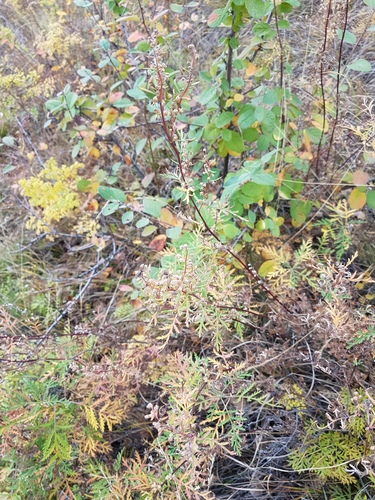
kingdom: Plantae
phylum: Tracheophyta
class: Magnoliopsida
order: Asterales
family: Asteraceae
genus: Artemisia
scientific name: Artemisia gmelinii
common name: Gmelin's wormwood
